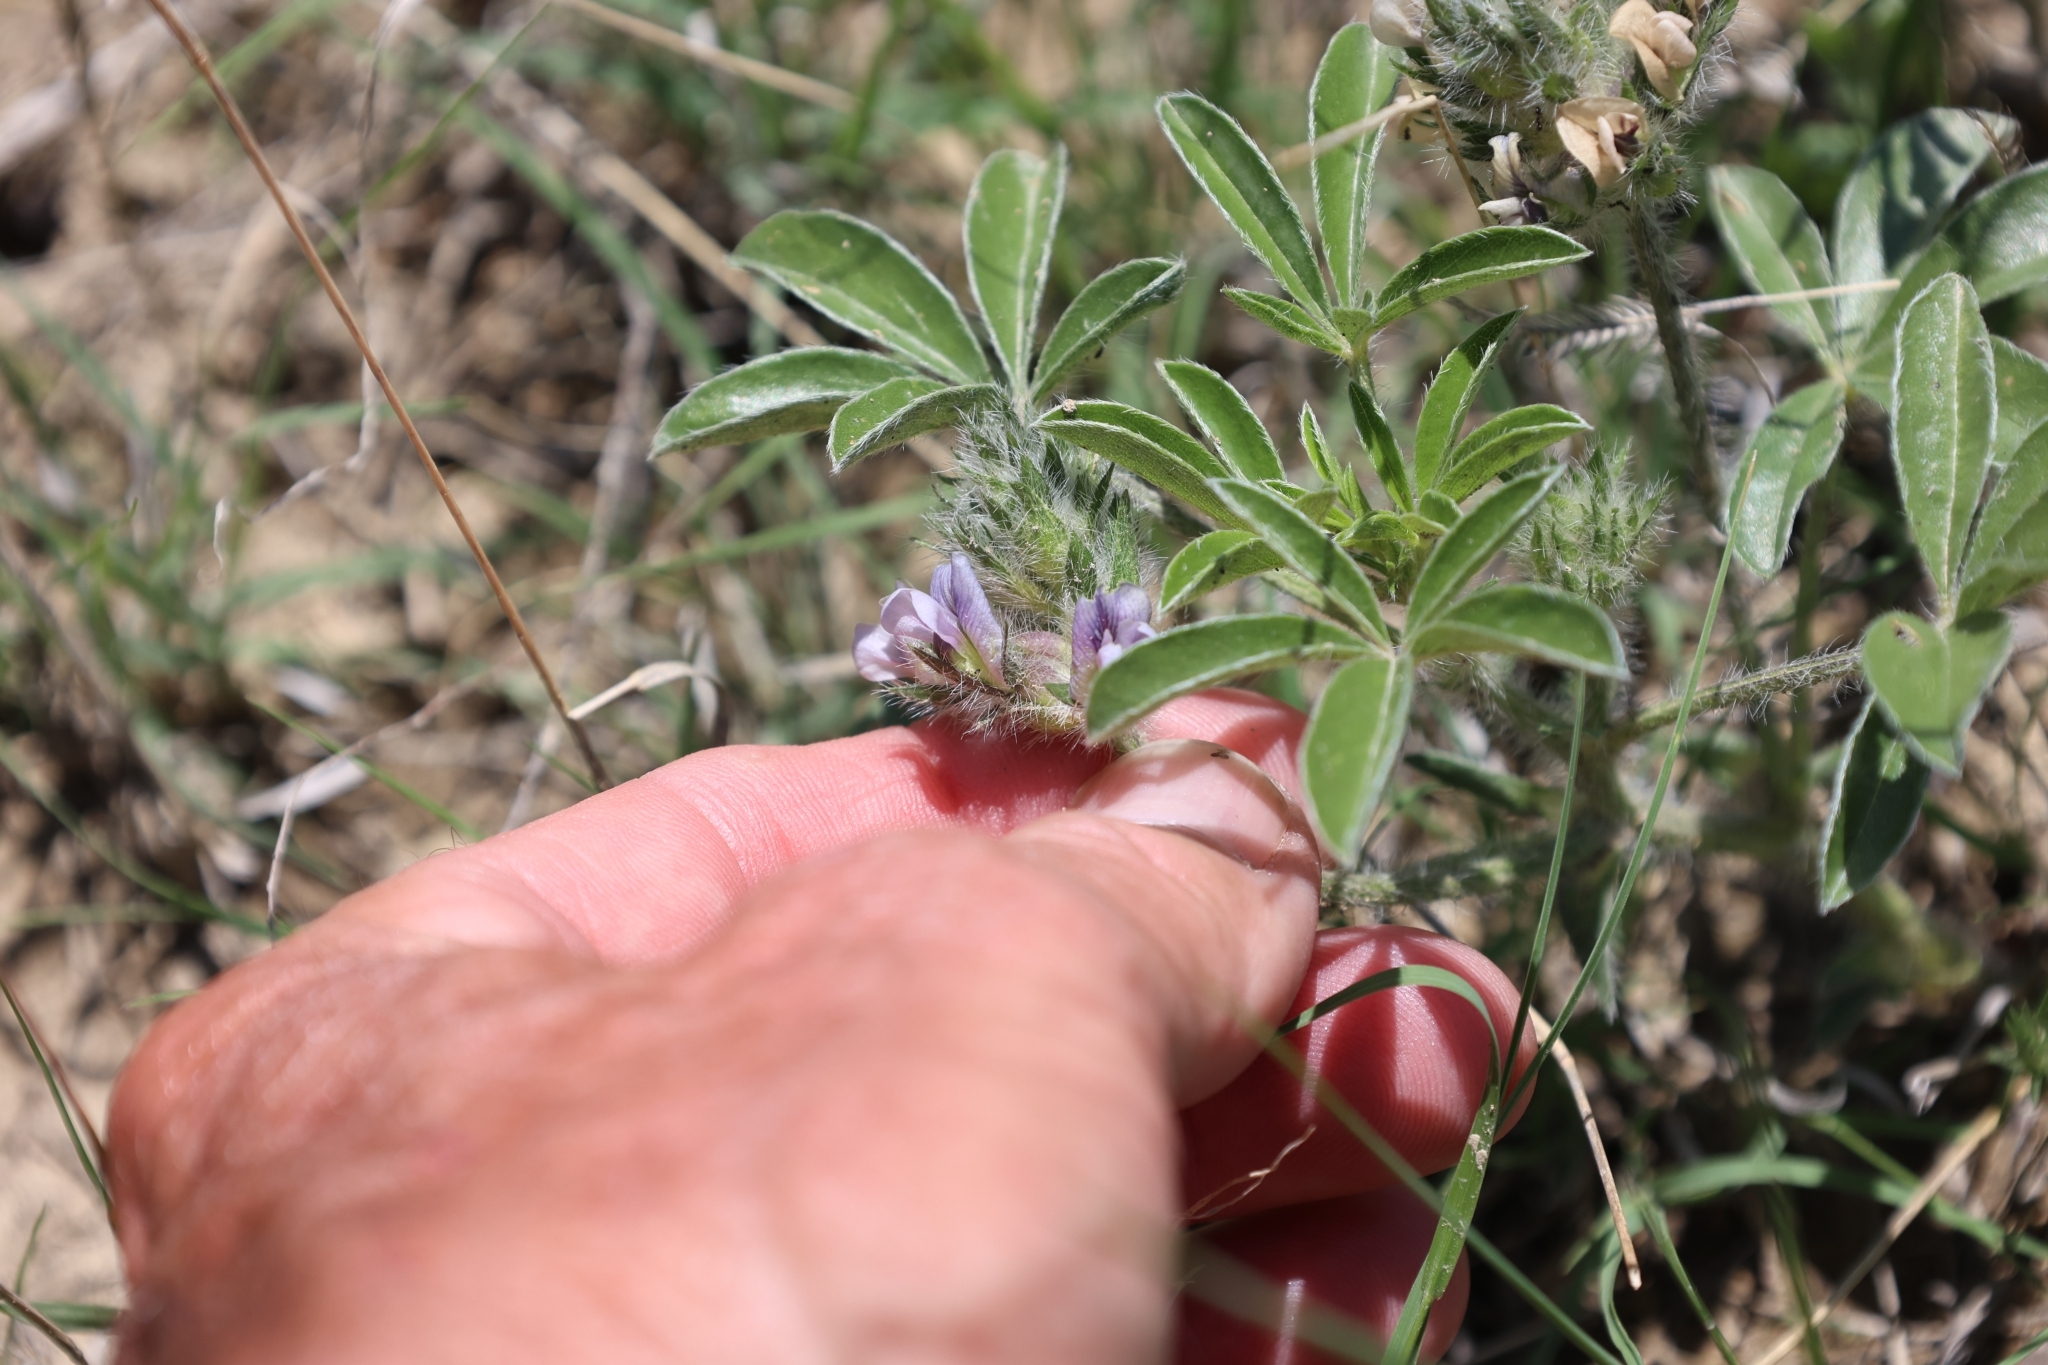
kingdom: Plantae
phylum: Tracheophyta
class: Magnoliopsida
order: Fabales
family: Fabaceae
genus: Pediomelum
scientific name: Pediomelum esculentum
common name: Indian-turnip
